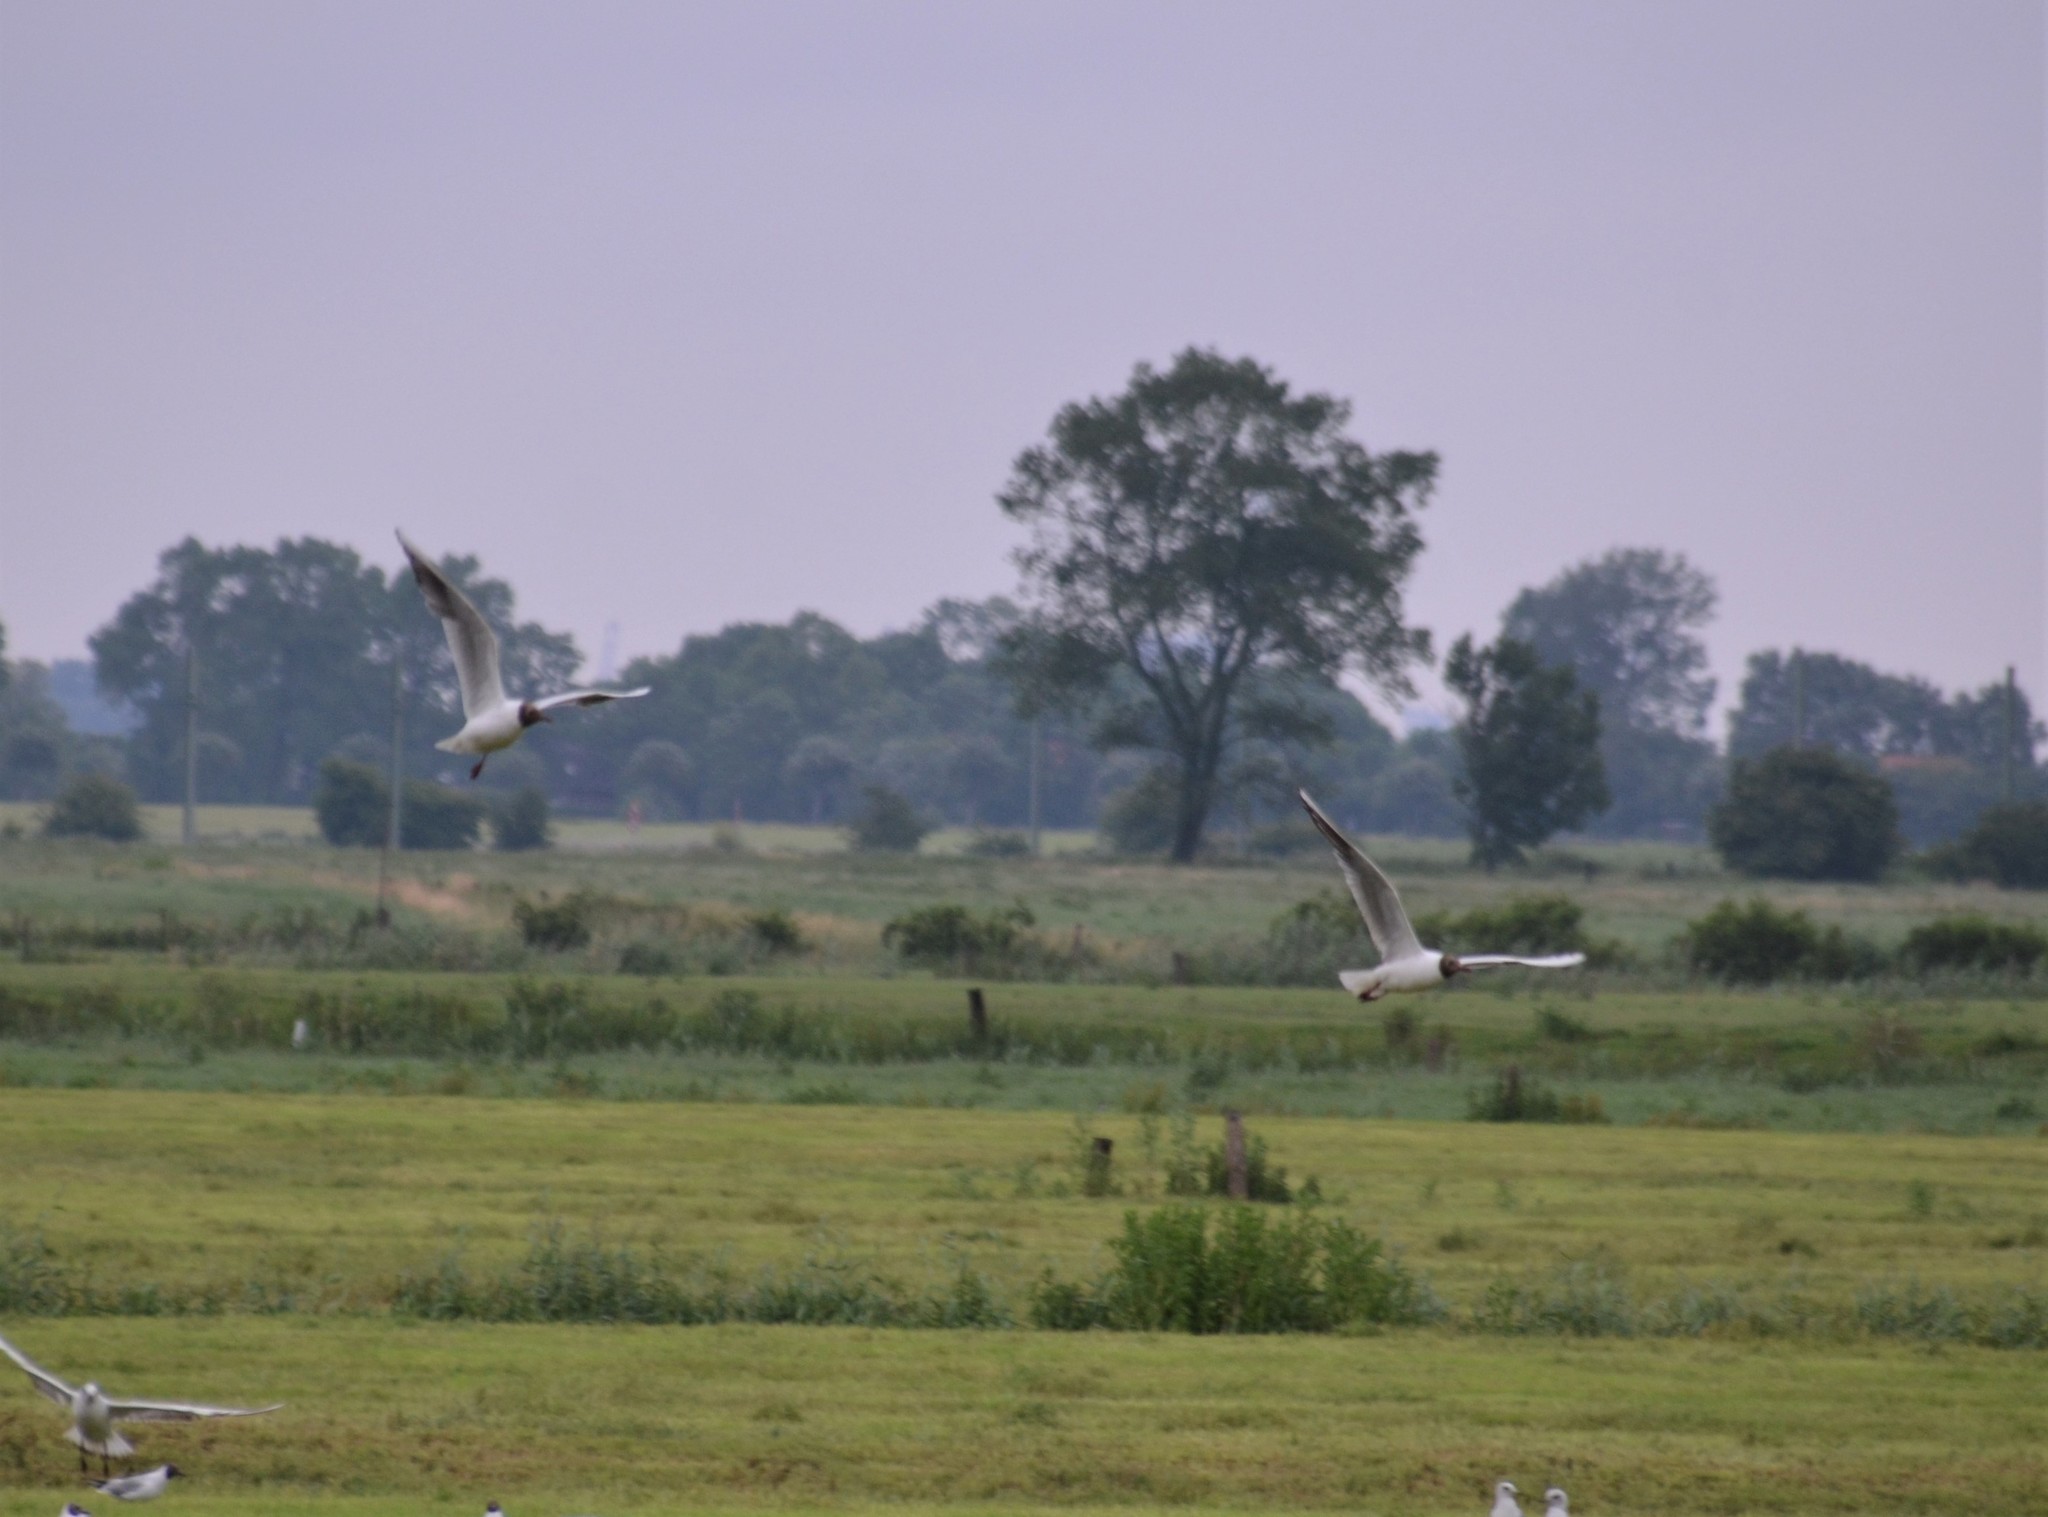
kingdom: Animalia
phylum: Chordata
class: Aves
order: Charadriiformes
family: Laridae
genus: Chroicocephalus
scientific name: Chroicocephalus ridibundus
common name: Black-headed gull
